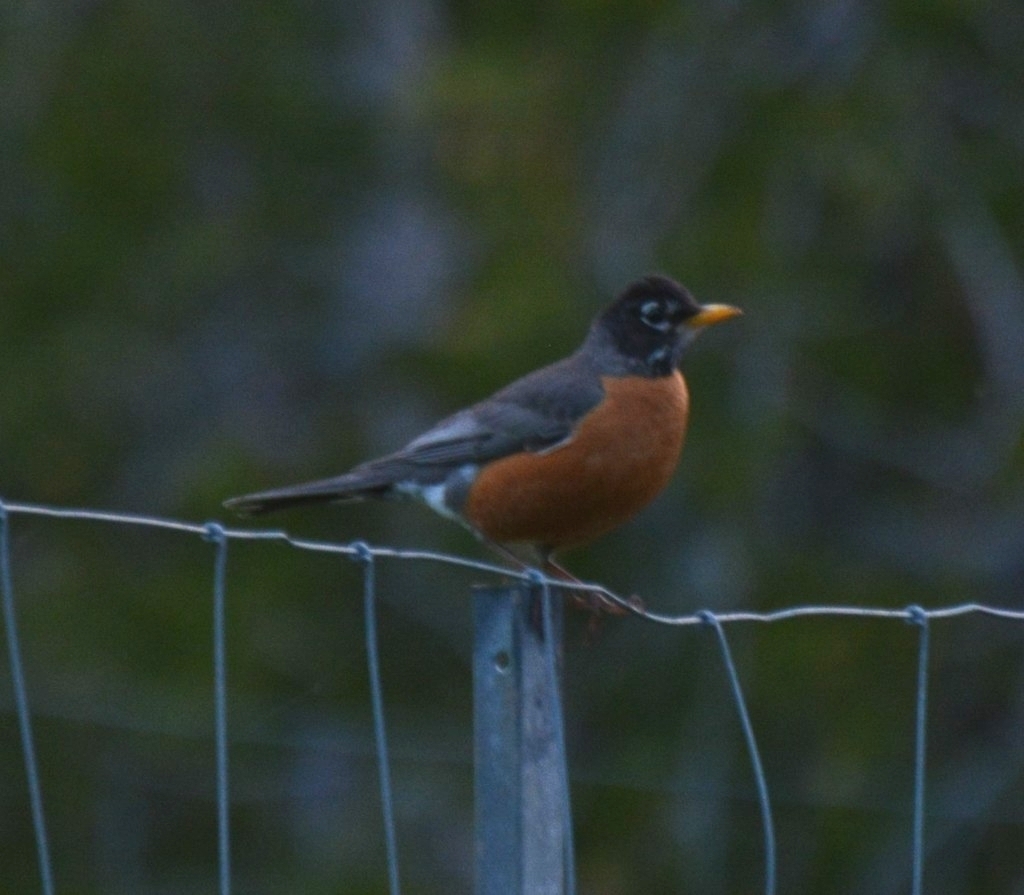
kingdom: Animalia
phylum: Chordata
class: Aves
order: Passeriformes
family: Turdidae
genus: Turdus
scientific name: Turdus migratorius
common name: American robin
